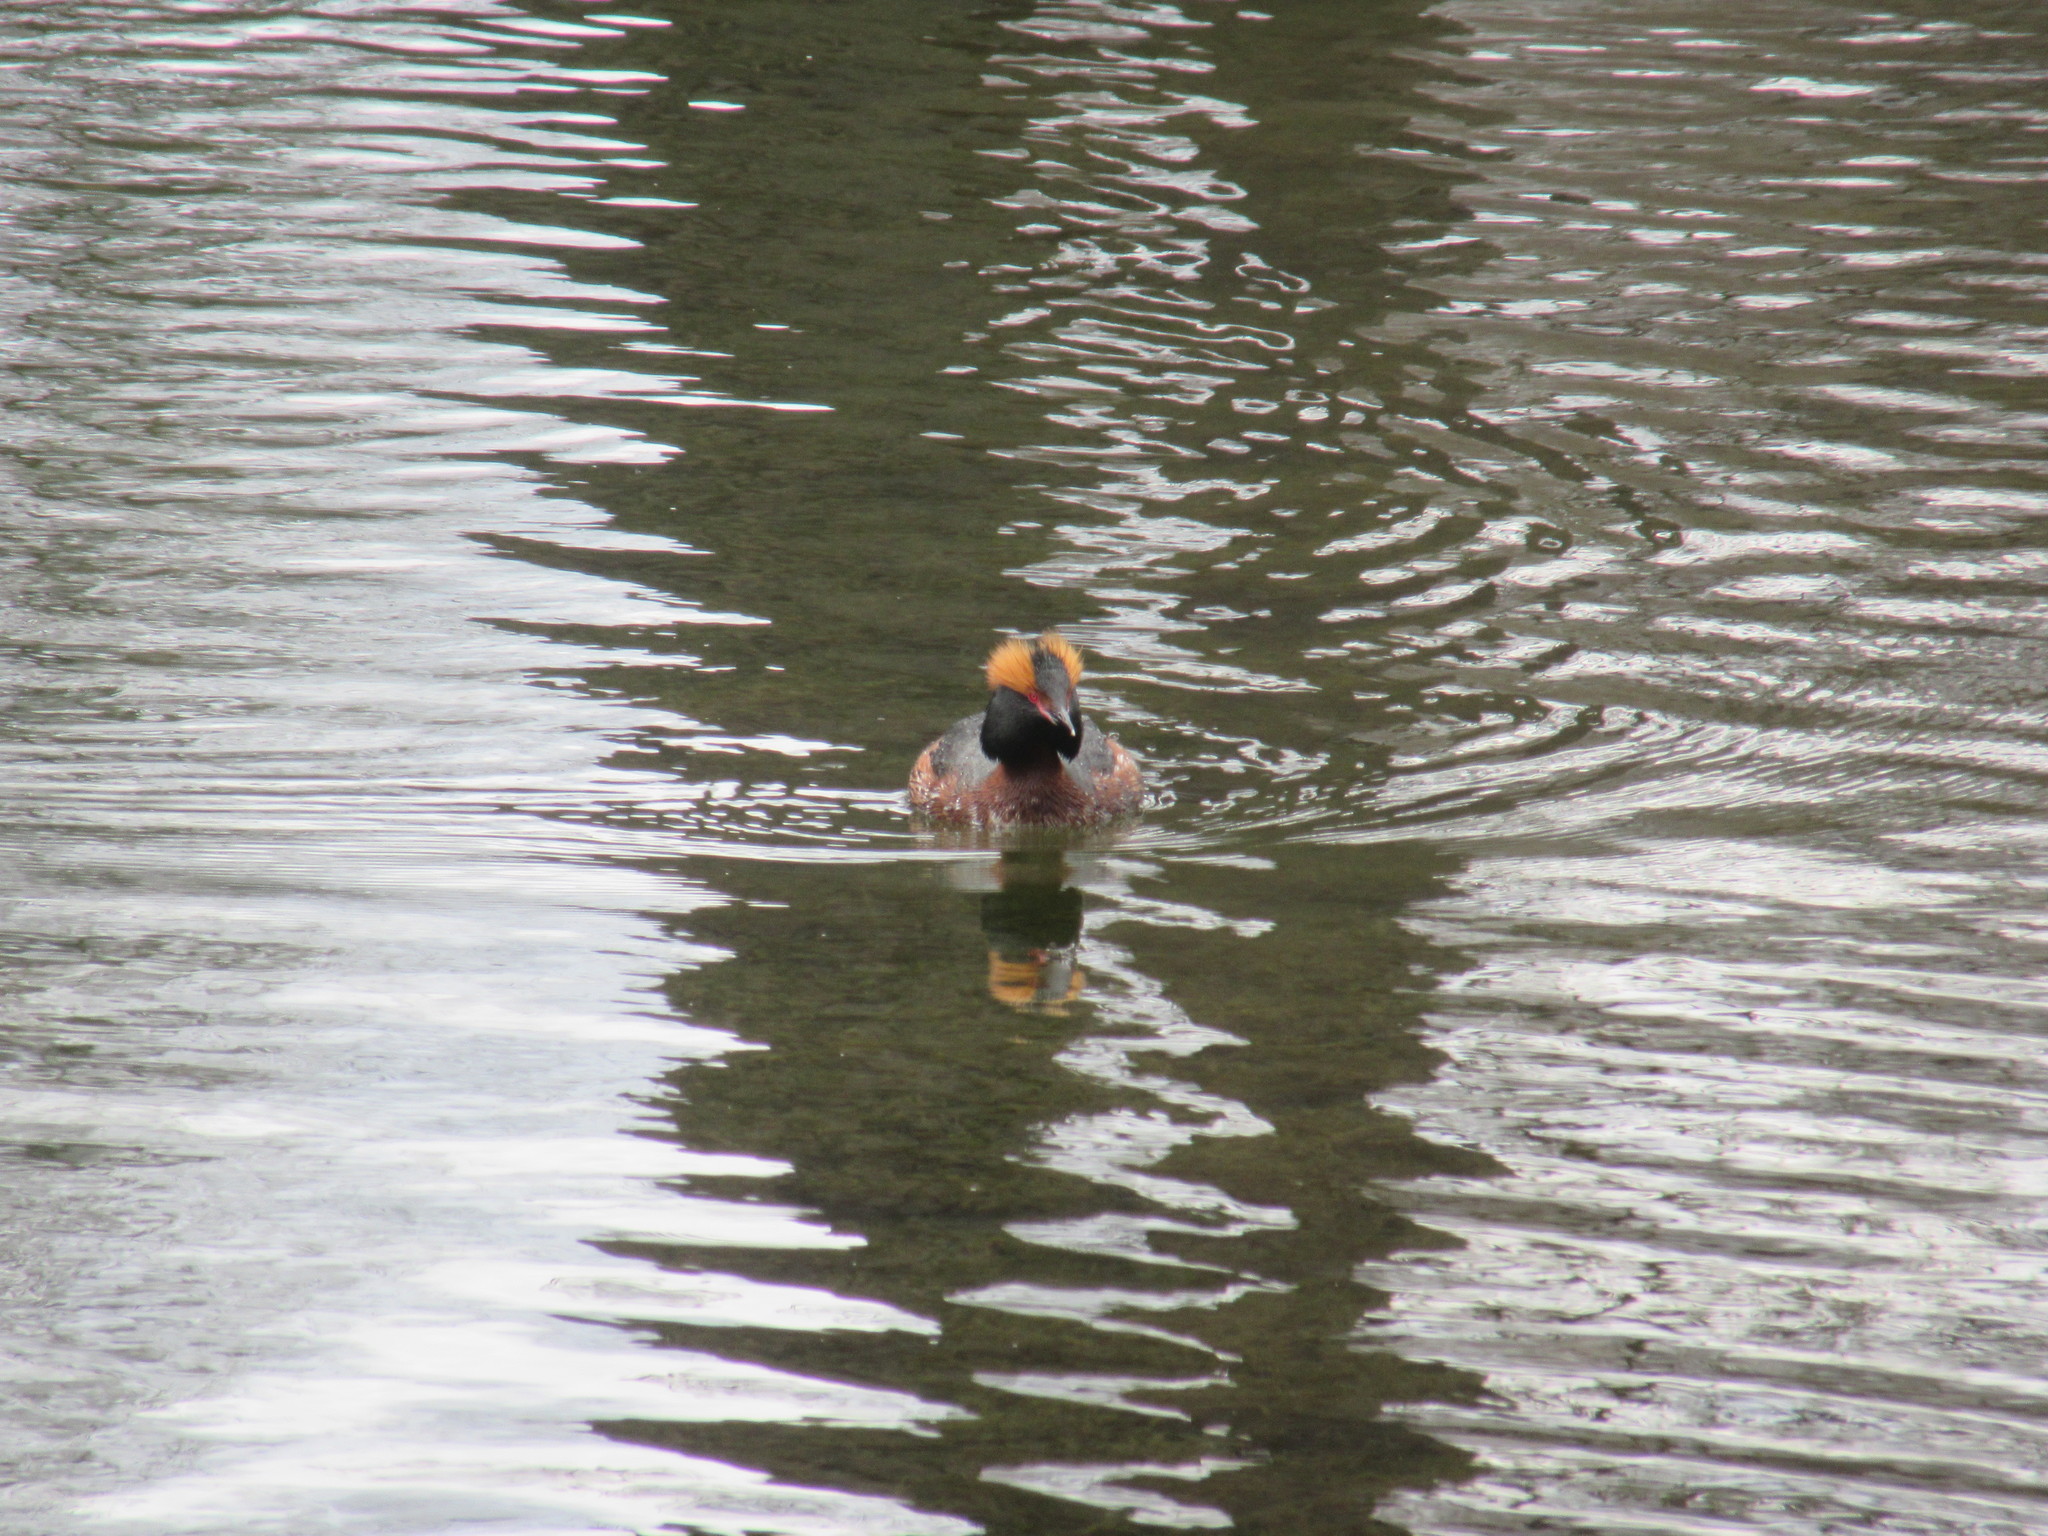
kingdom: Animalia
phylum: Chordata
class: Aves
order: Podicipediformes
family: Podicipedidae
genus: Podiceps
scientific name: Podiceps auritus
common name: Horned grebe
